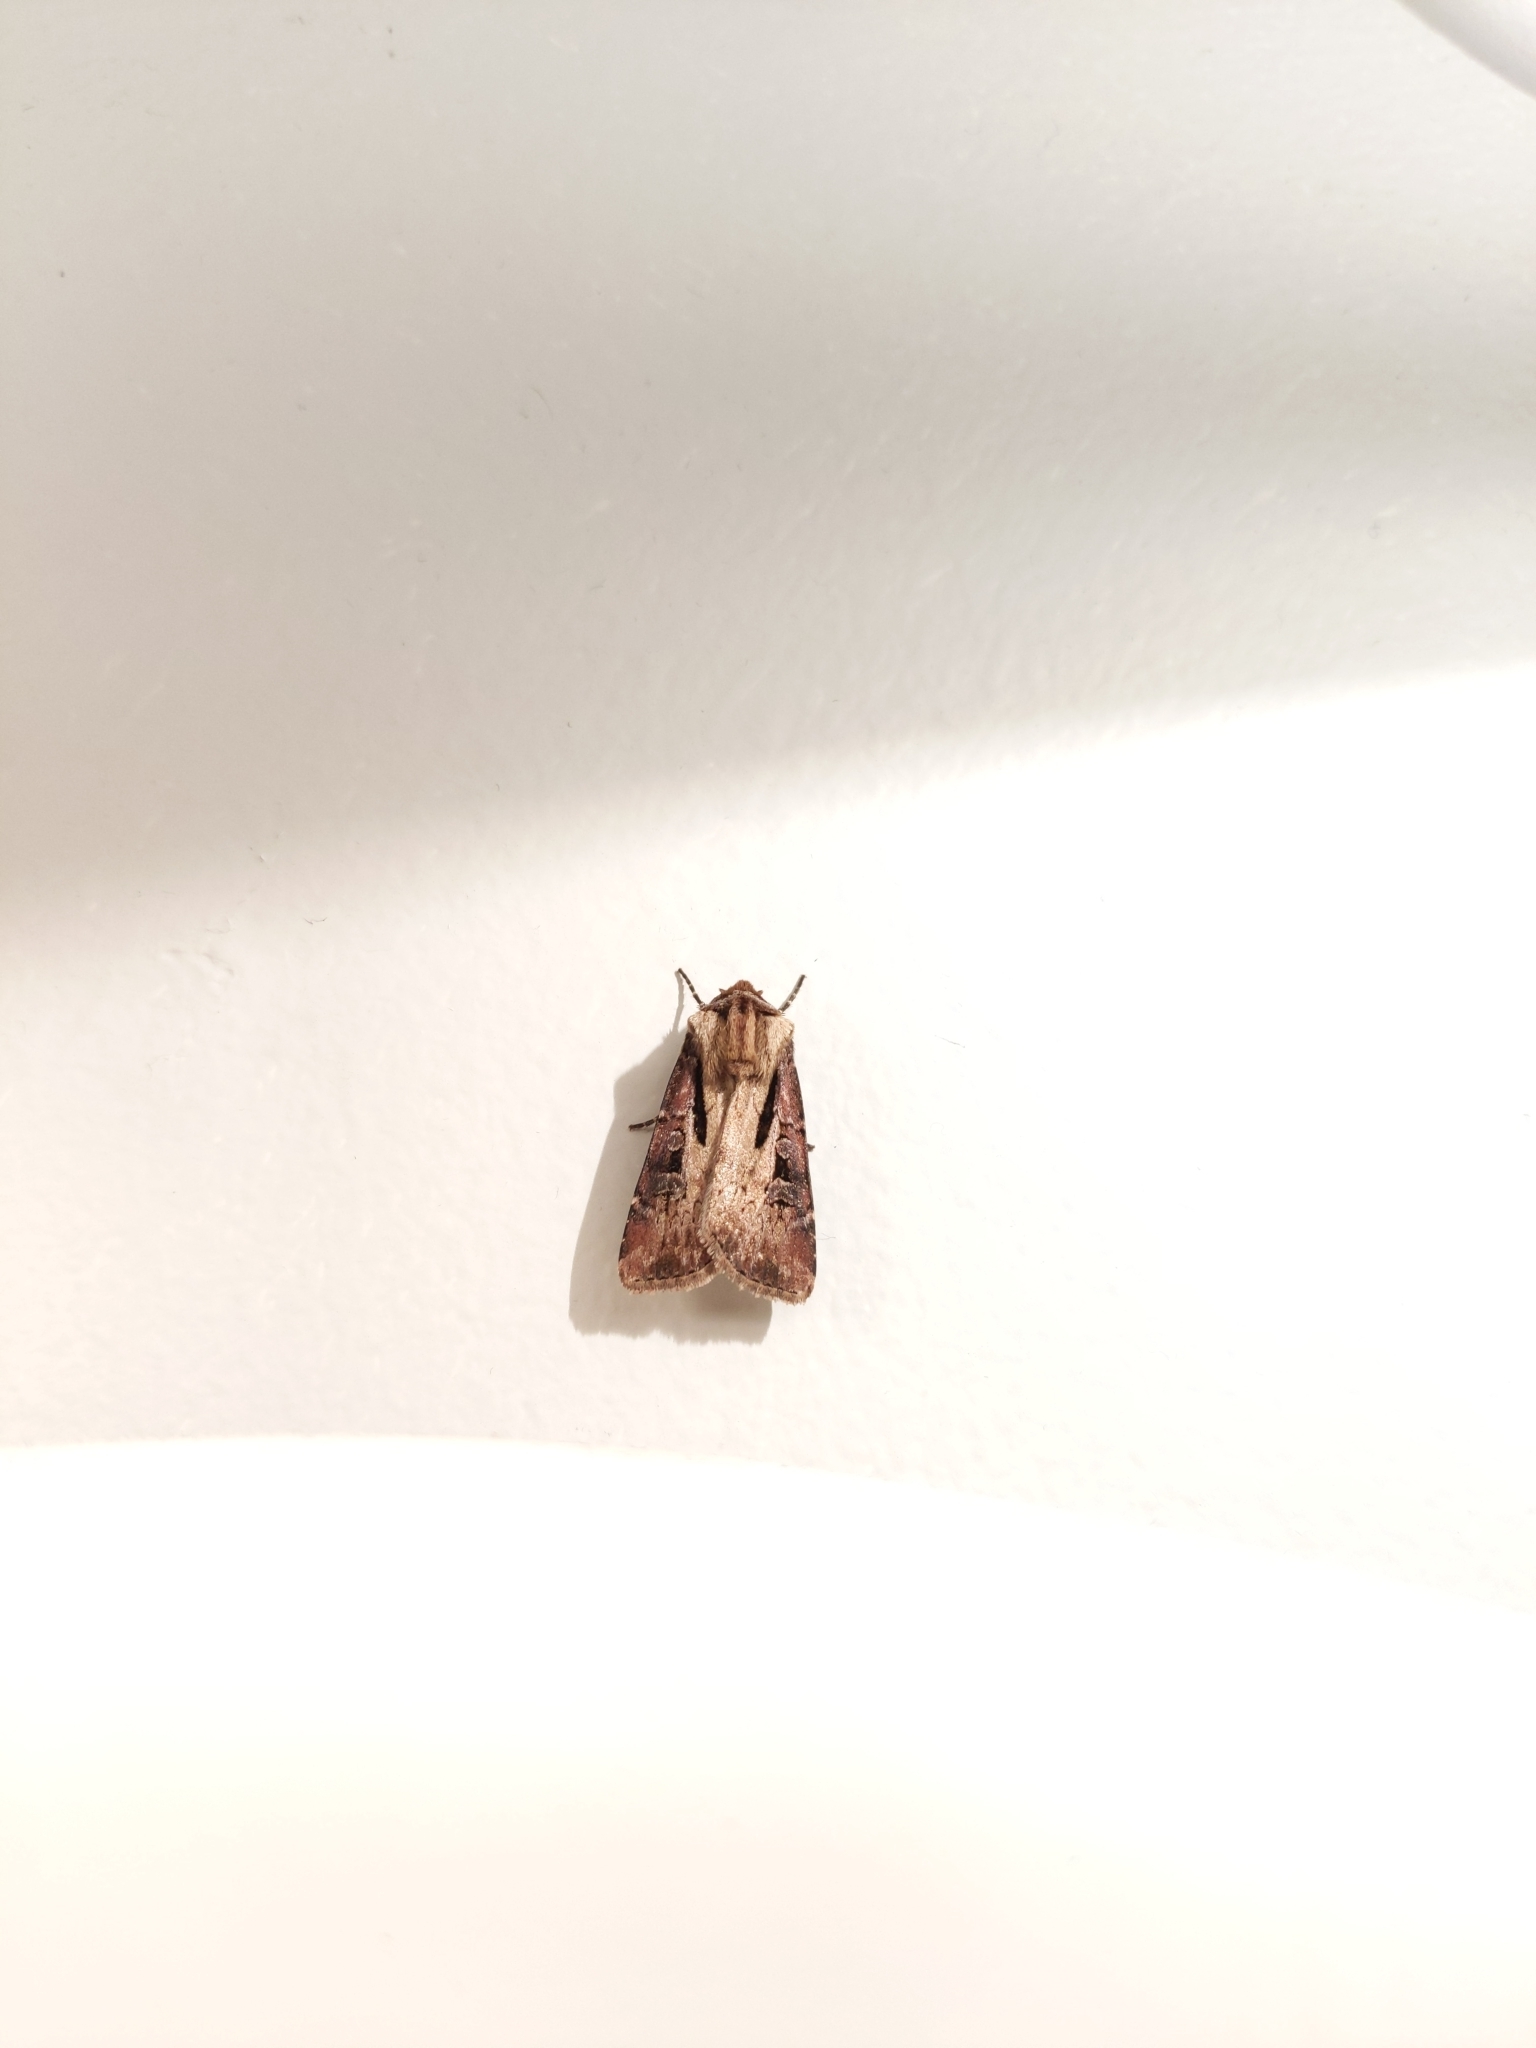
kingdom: Animalia
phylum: Arthropoda
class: Insecta
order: Lepidoptera
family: Noctuidae
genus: Agrotis
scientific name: Agrotis vancouverensis
